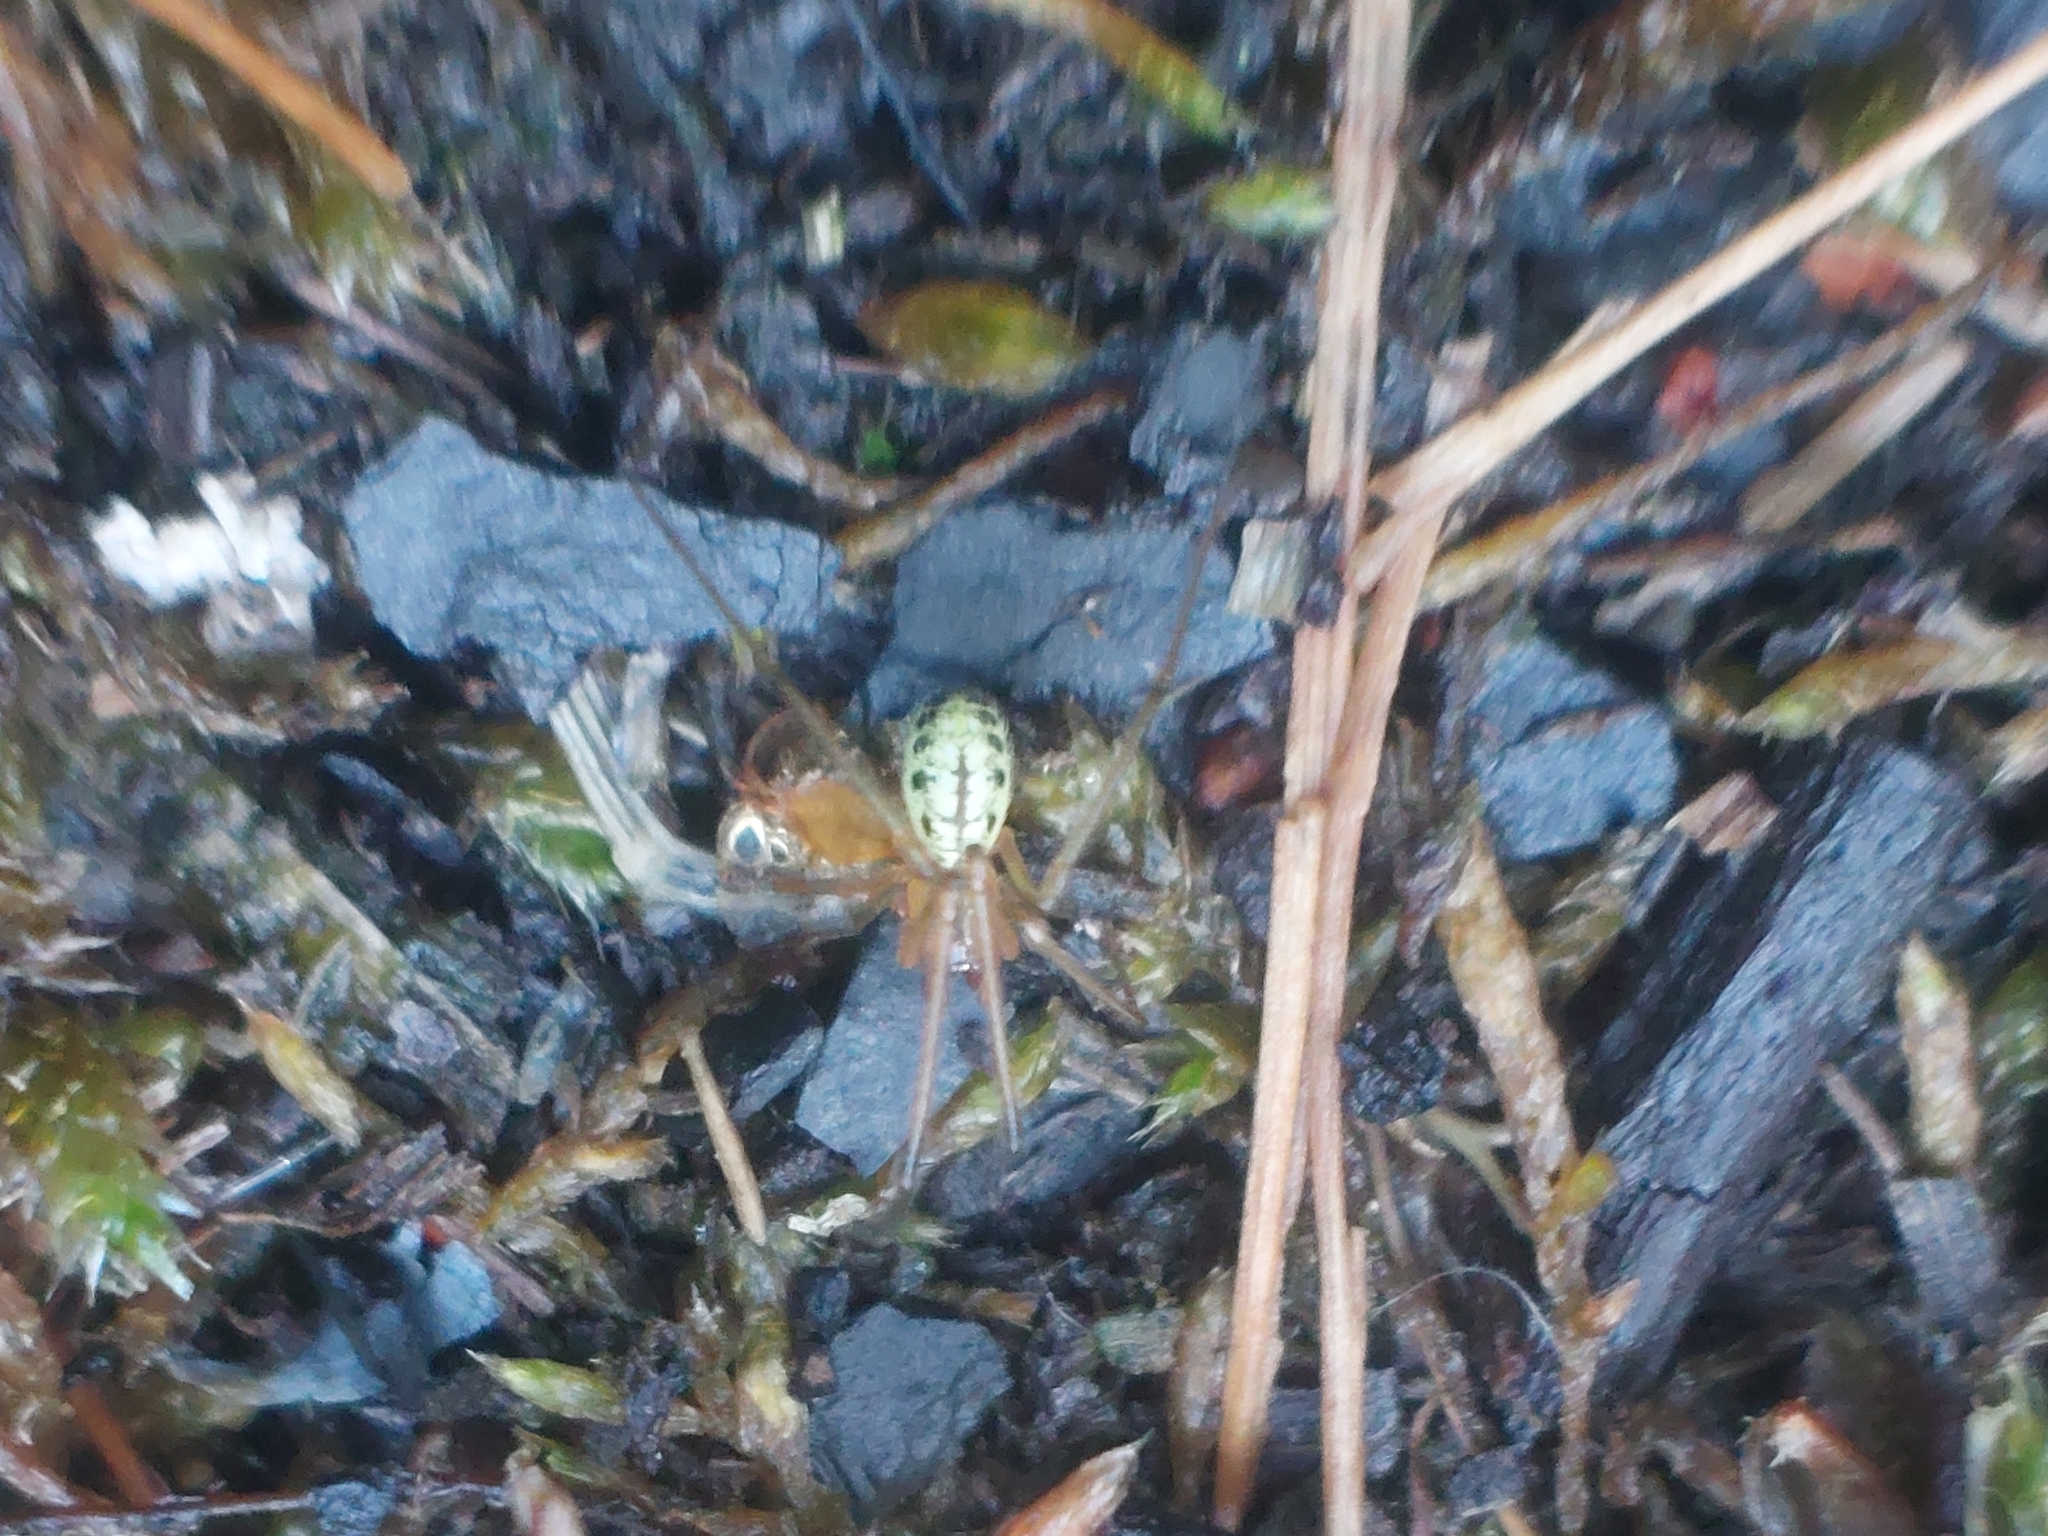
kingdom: Animalia
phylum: Arthropoda
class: Arachnida
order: Araneae
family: Theridiidae
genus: Enoplognatha
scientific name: Enoplognatha ovata
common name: Common candy-striped spider
